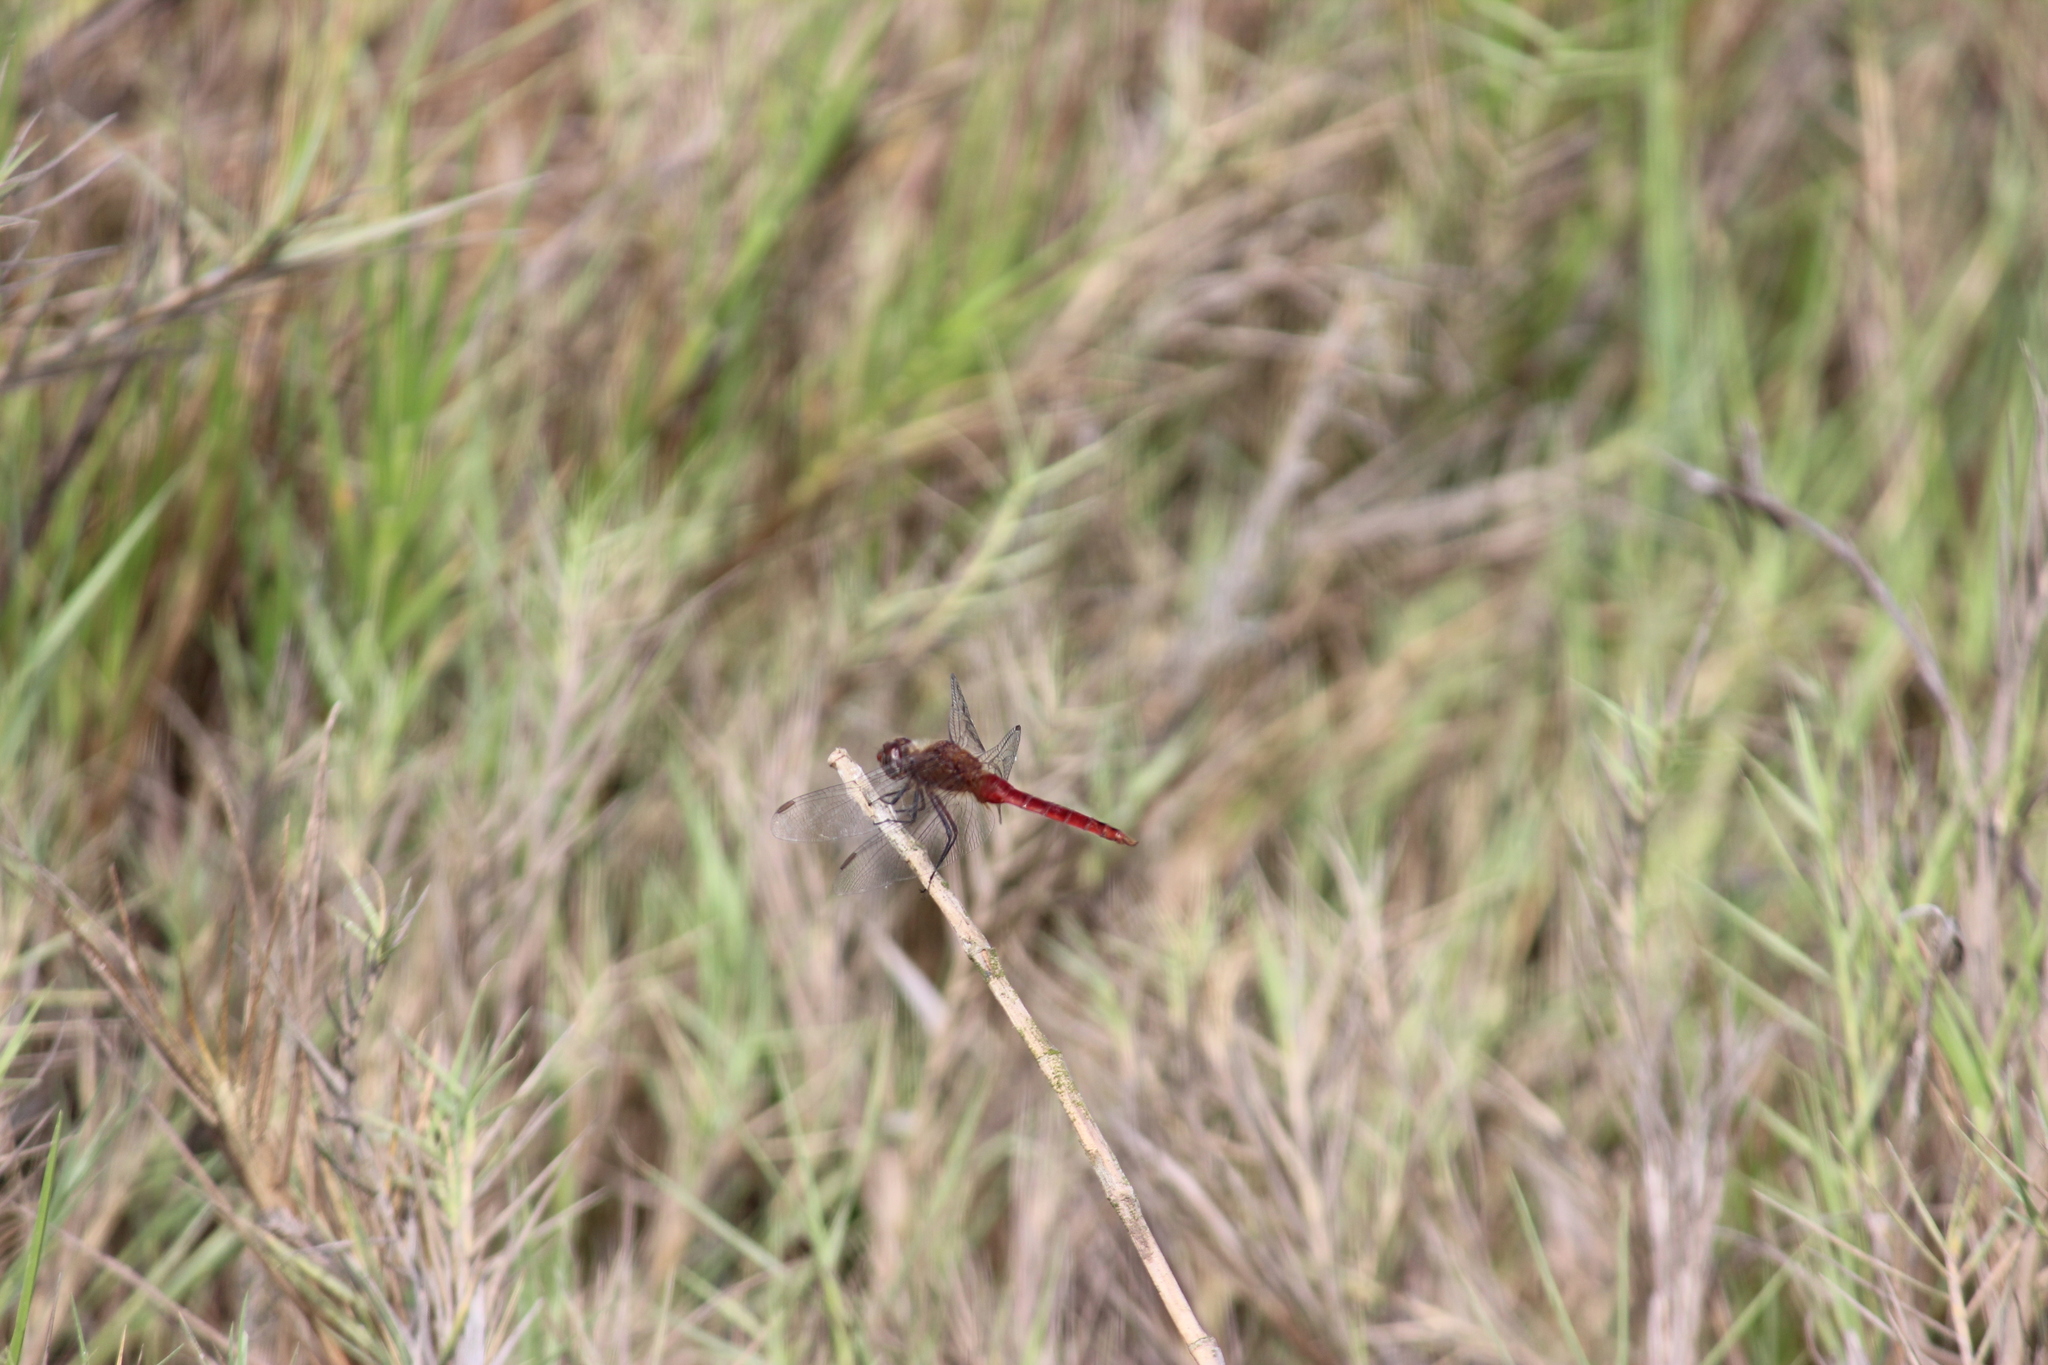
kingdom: Animalia
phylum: Arthropoda
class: Insecta
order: Odonata
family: Libellulidae
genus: Brachymesia
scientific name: Brachymesia furcata
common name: Red-taled pennant
